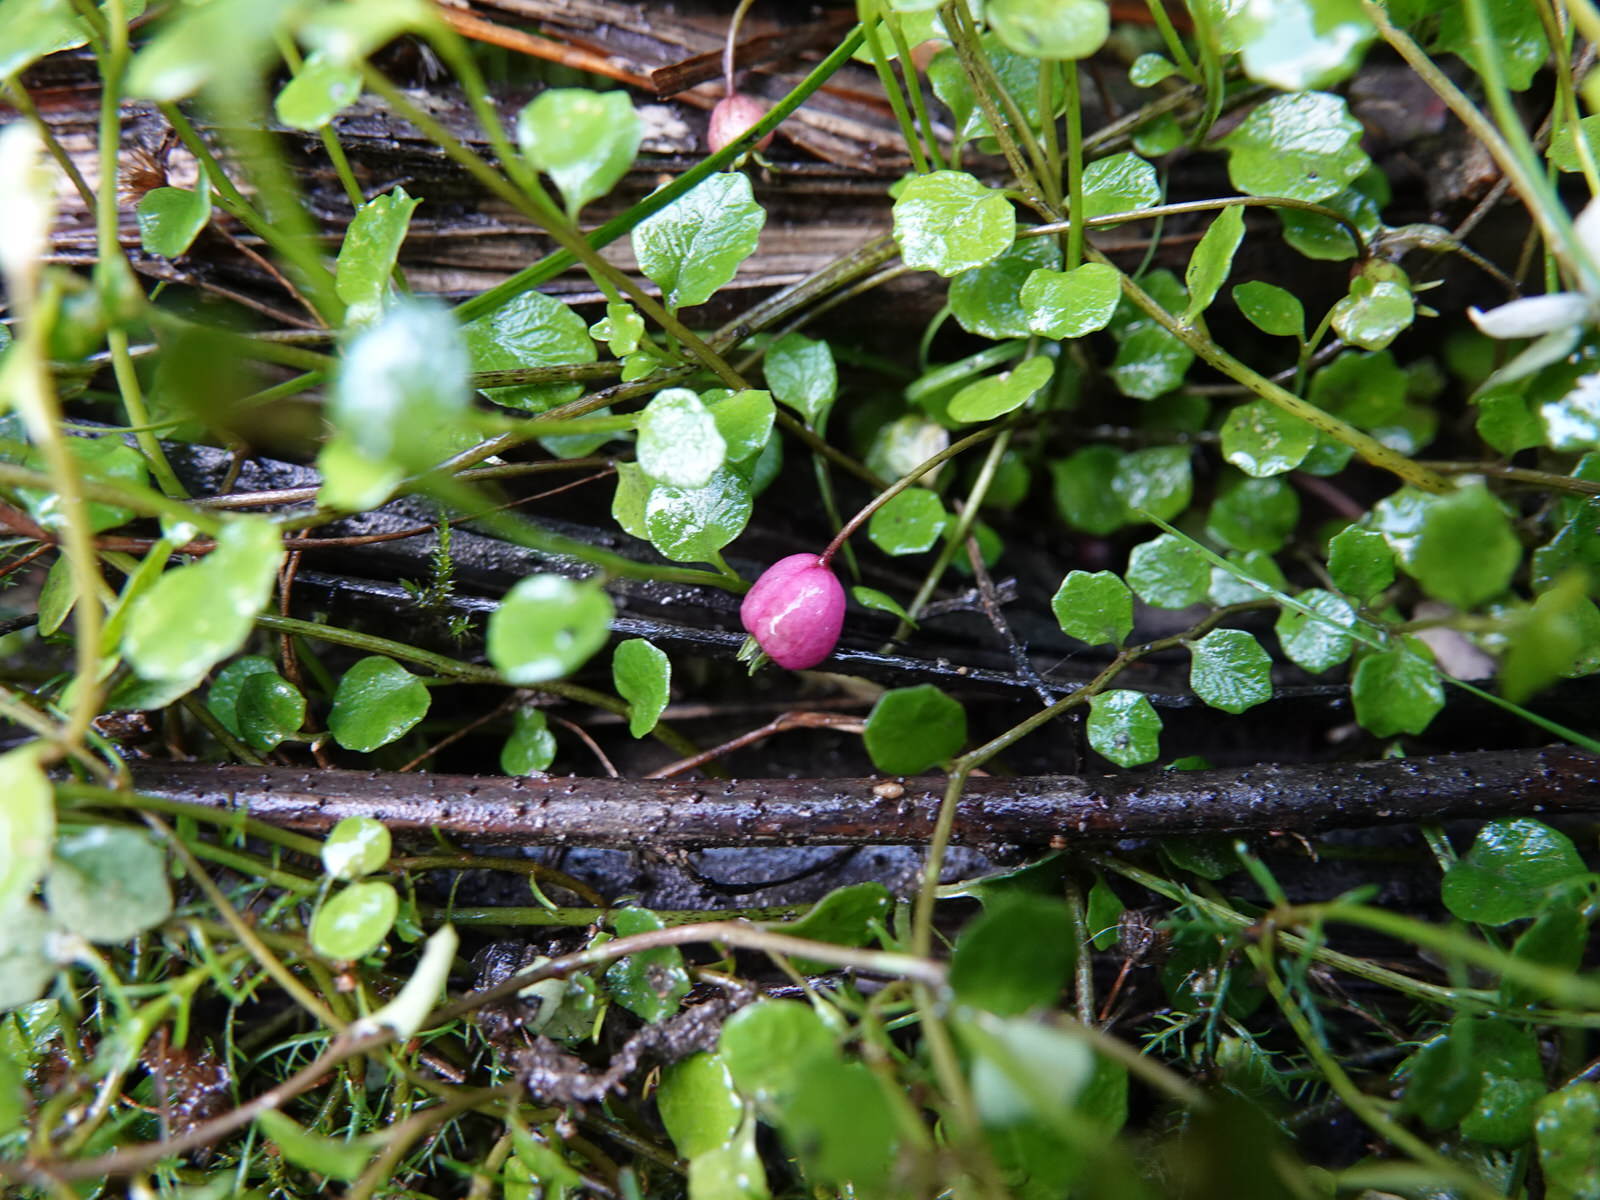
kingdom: Plantae
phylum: Tracheophyta
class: Magnoliopsida
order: Asterales
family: Campanulaceae
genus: Lobelia
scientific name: Lobelia angulata
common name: Lawn lobelia
